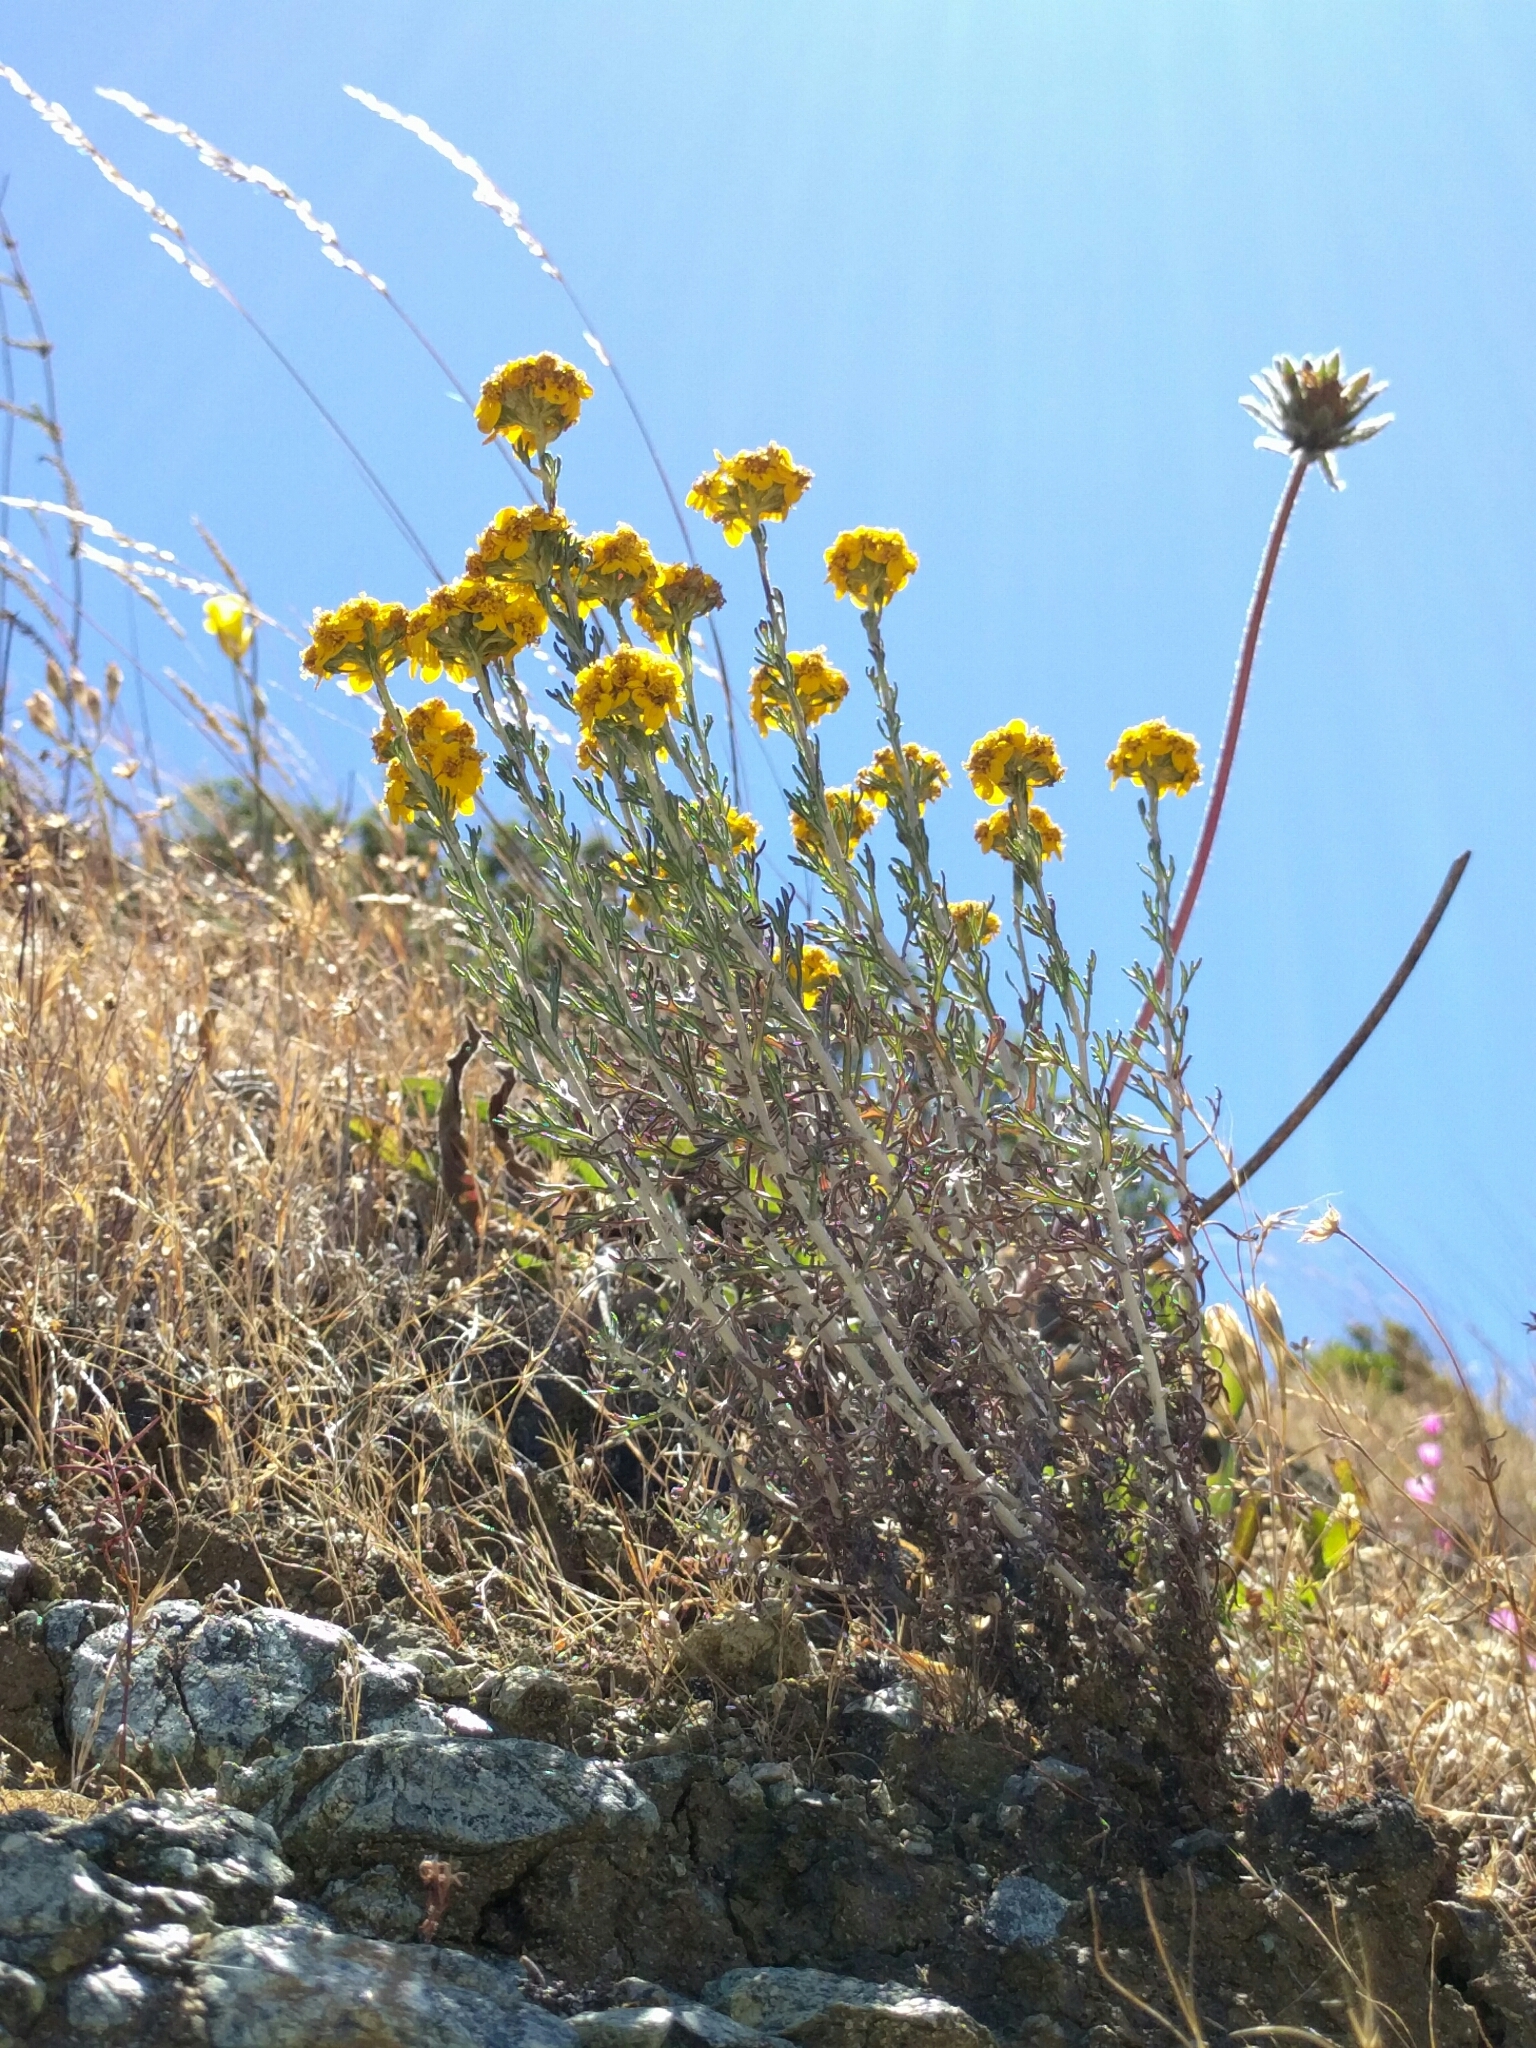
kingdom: Plantae
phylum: Tracheophyta
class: Magnoliopsida
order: Asterales
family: Asteraceae
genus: Eriophyllum
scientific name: Eriophyllum confertiflorum
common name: Golden-yarrow
